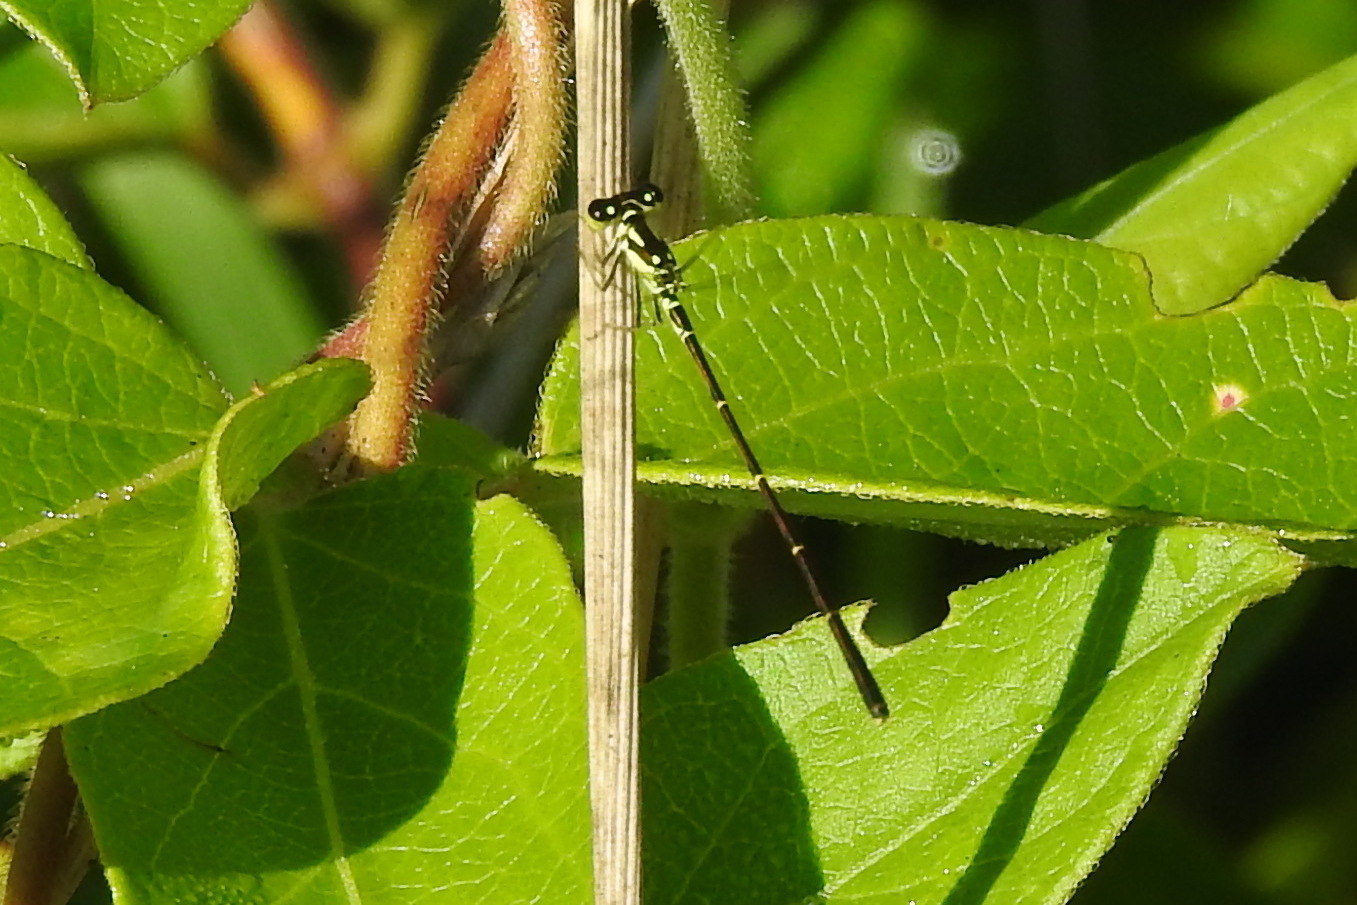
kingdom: Animalia
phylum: Arthropoda
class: Insecta
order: Odonata
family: Coenagrionidae
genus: Ischnura
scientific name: Ischnura posita
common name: Fragile forktail
